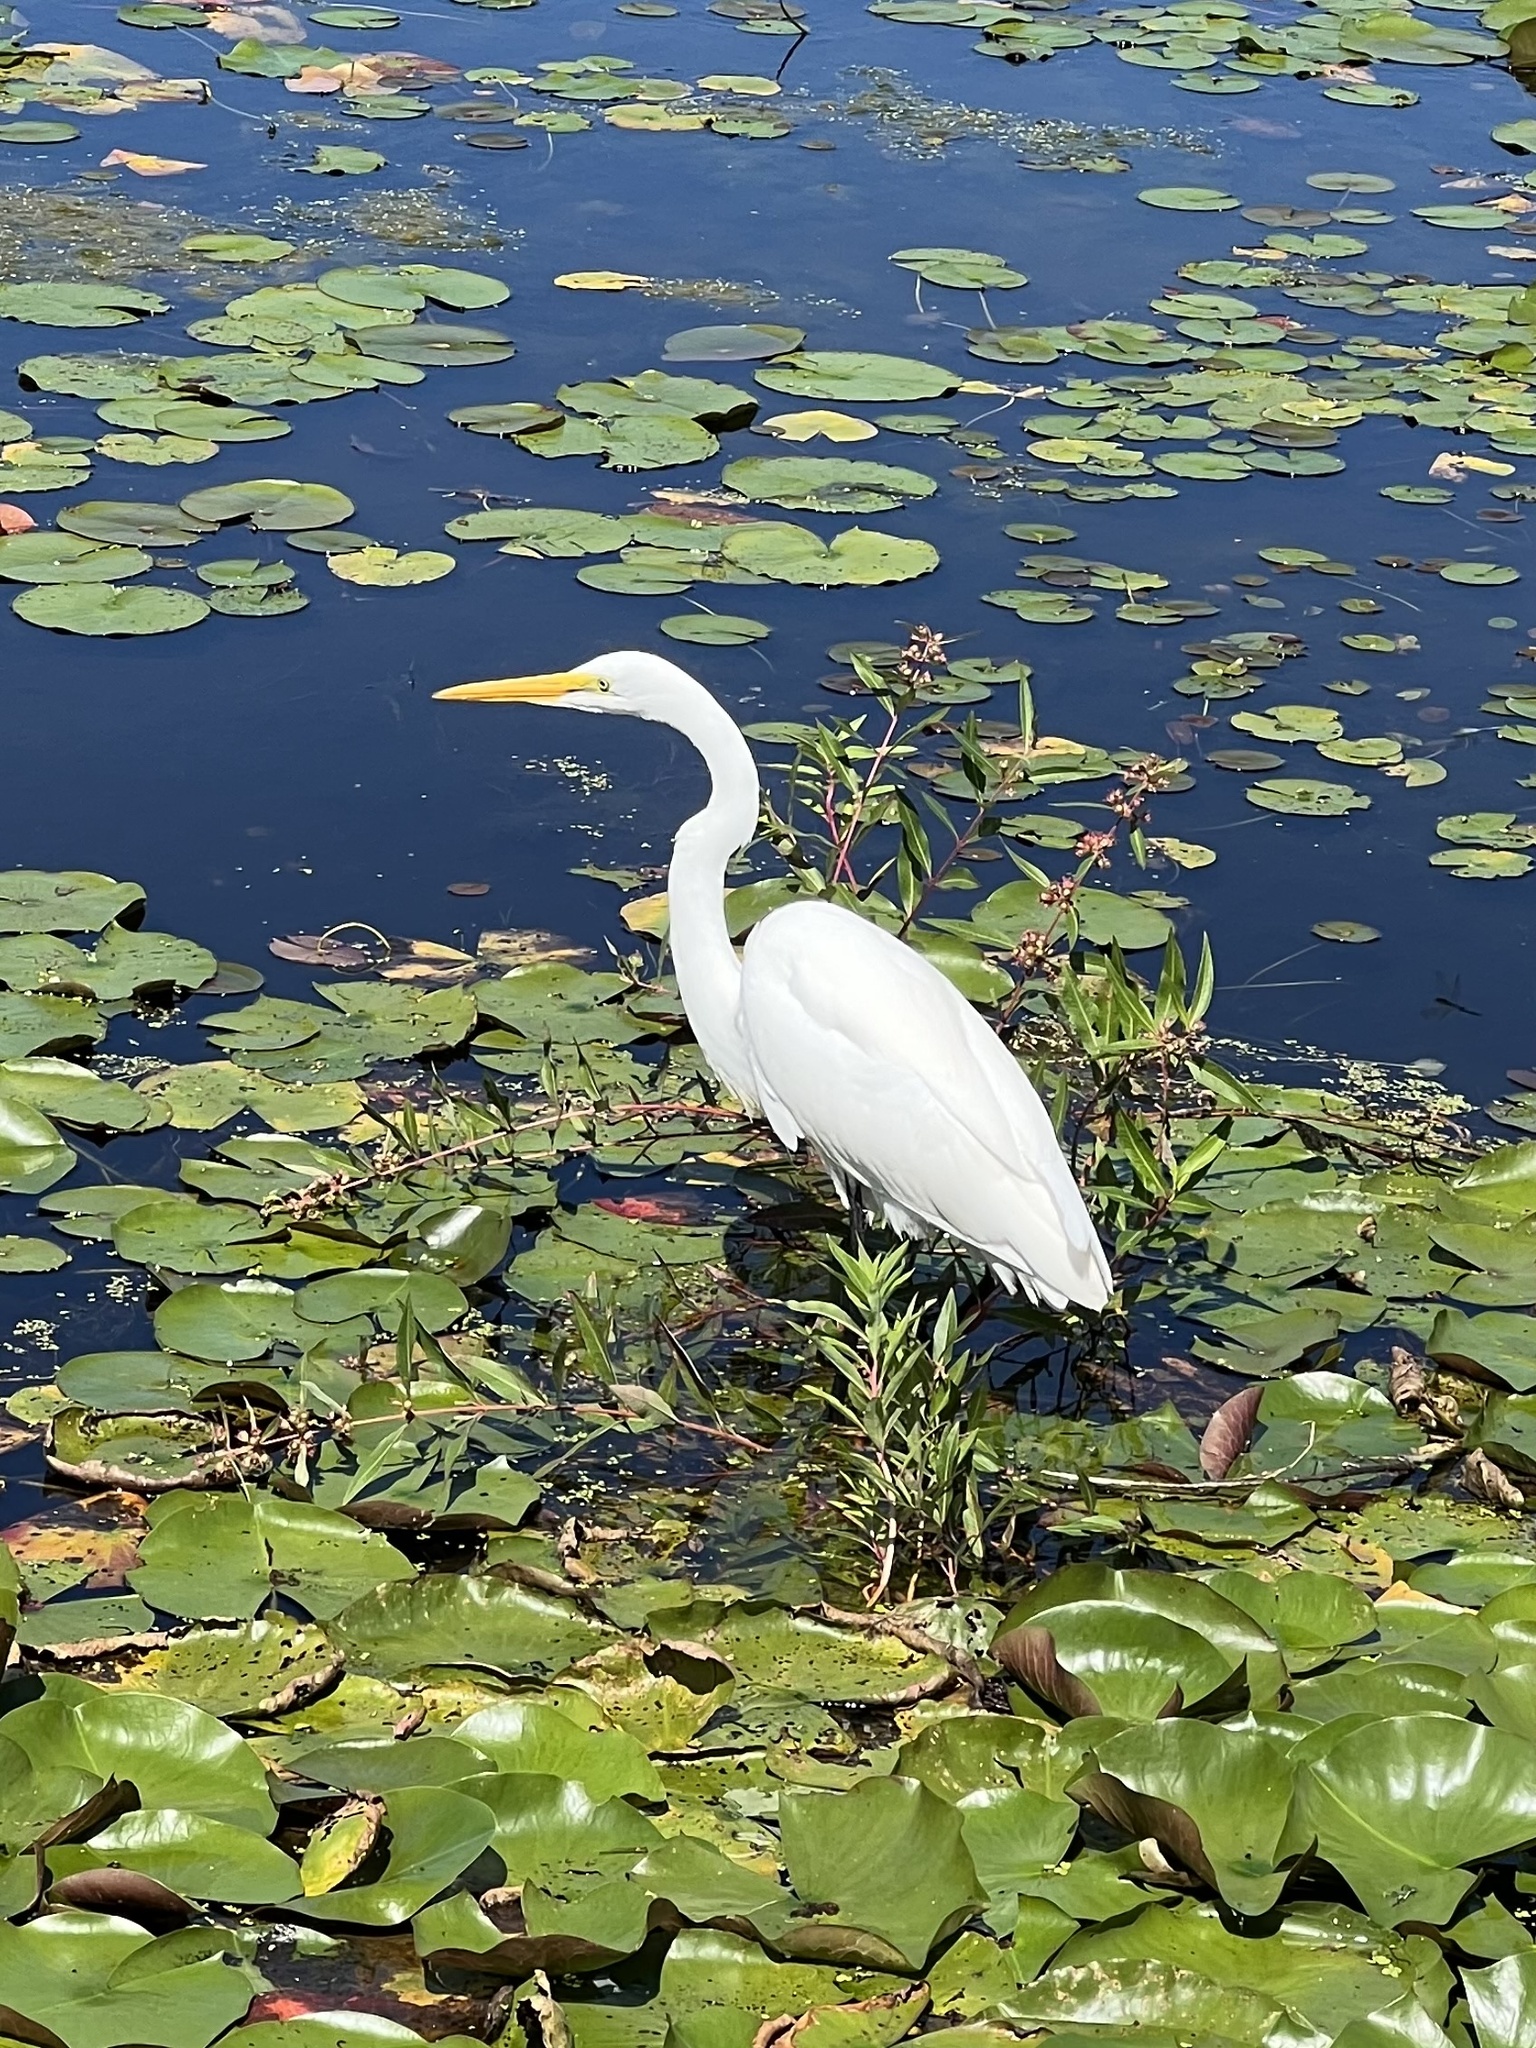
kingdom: Animalia
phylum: Chordata
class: Aves
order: Pelecaniformes
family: Ardeidae
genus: Ardea
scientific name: Ardea alba
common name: Great egret
